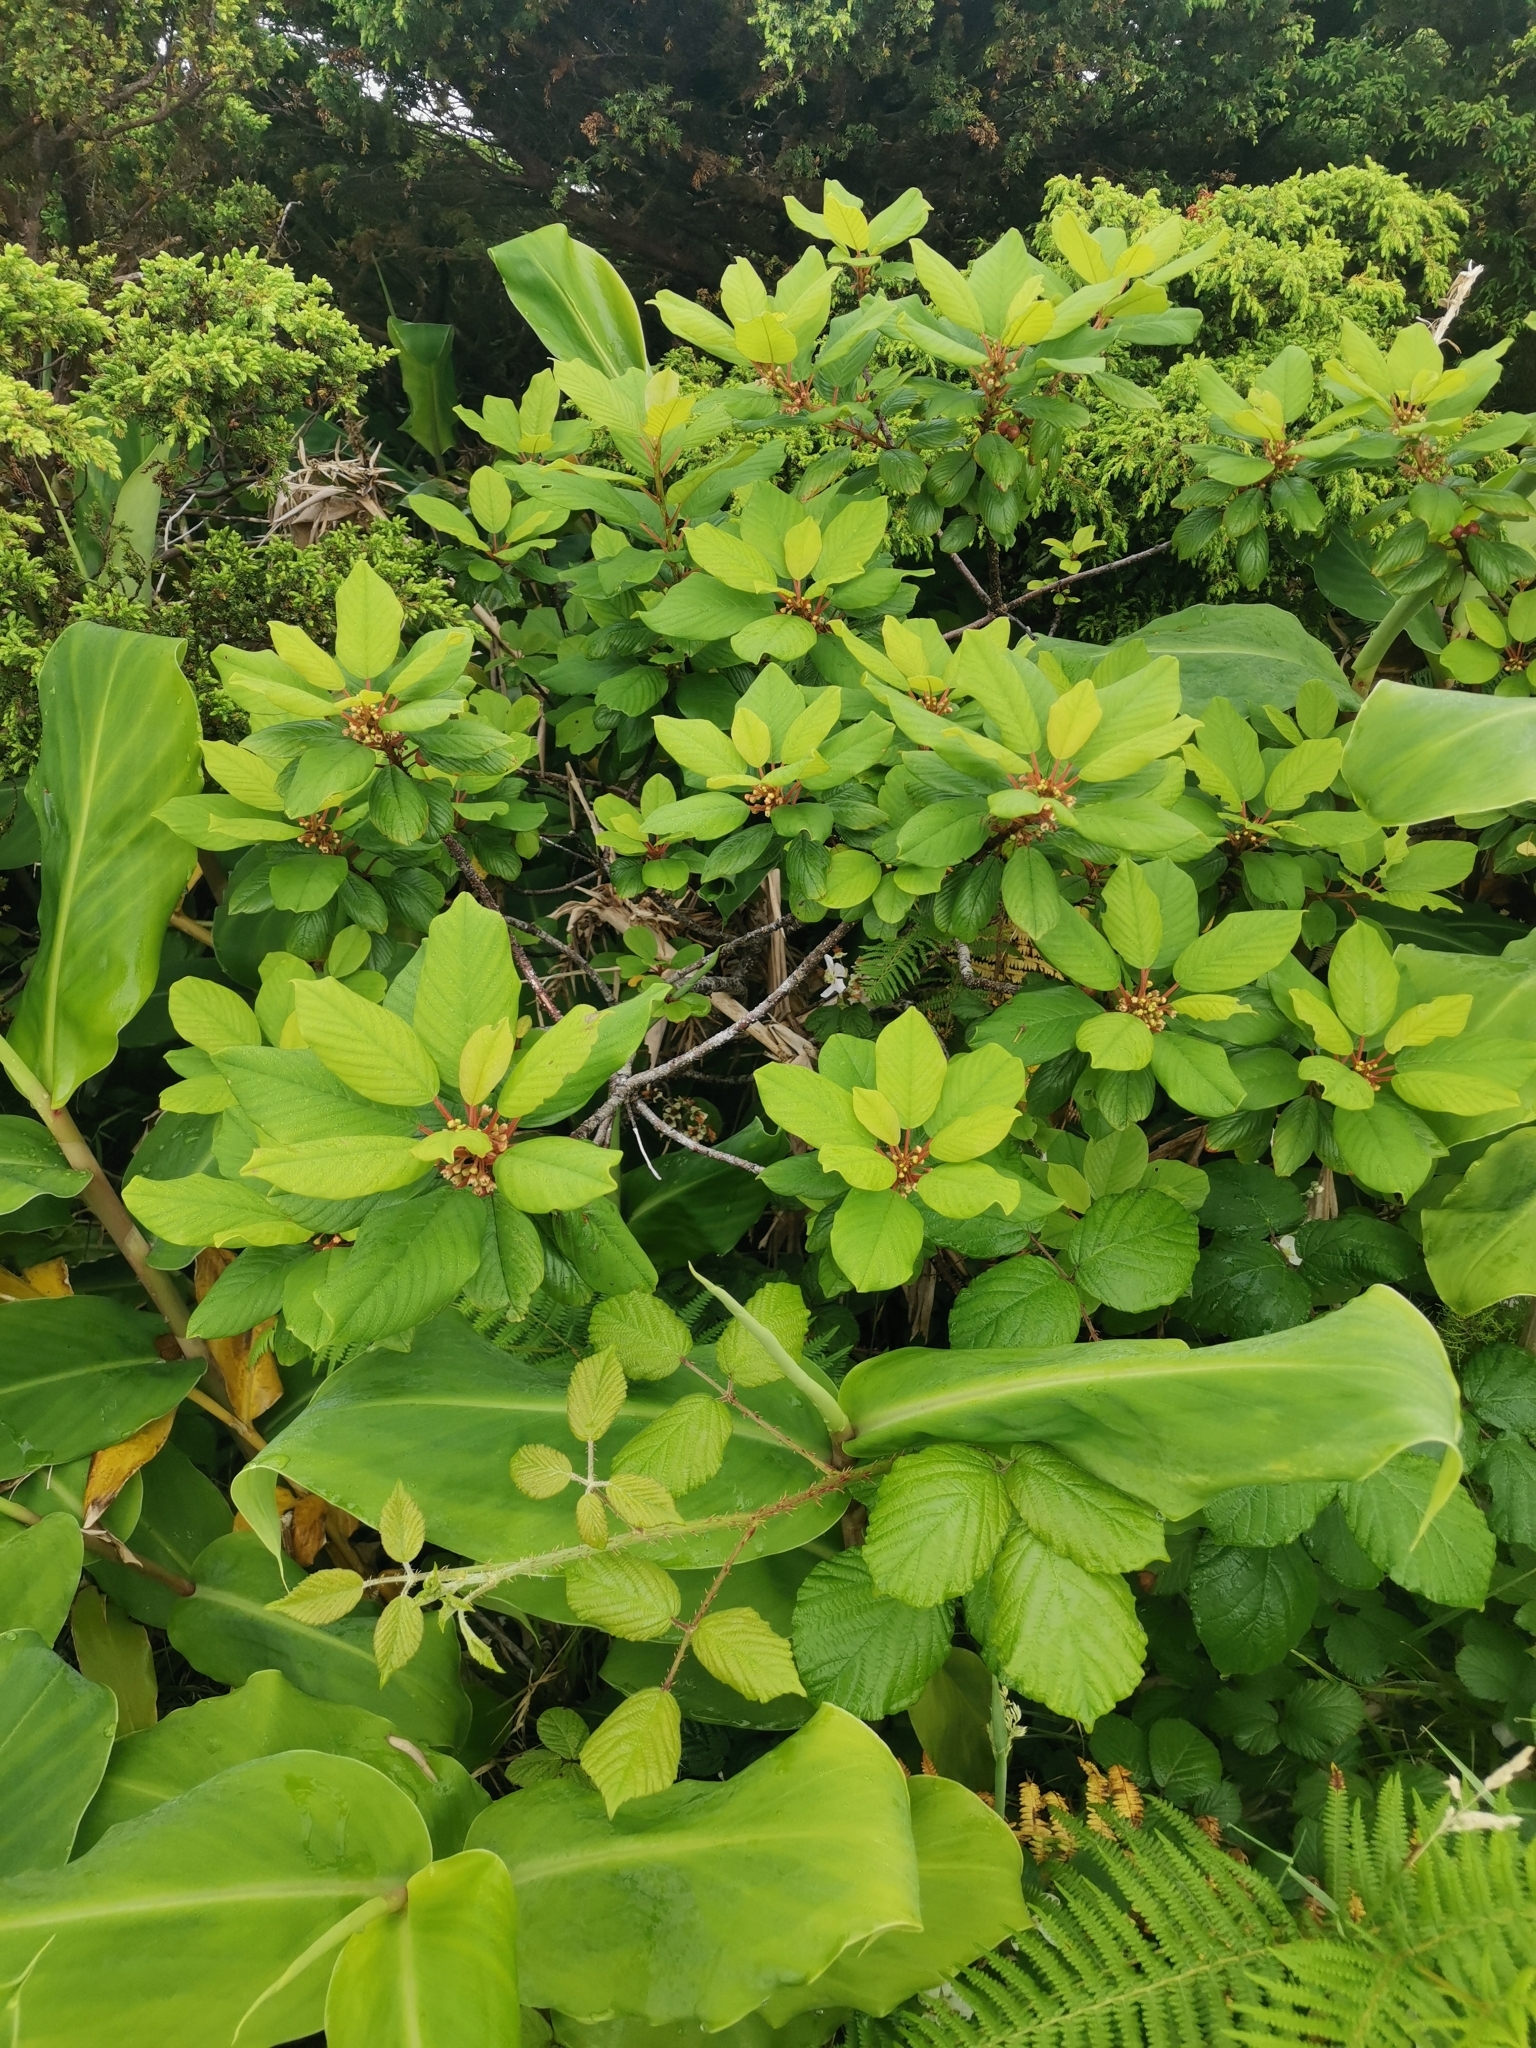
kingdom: Plantae
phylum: Tracheophyta
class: Magnoliopsida
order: Rosales
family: Rhamnaceae
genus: Frangula
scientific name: Frangula azorica
